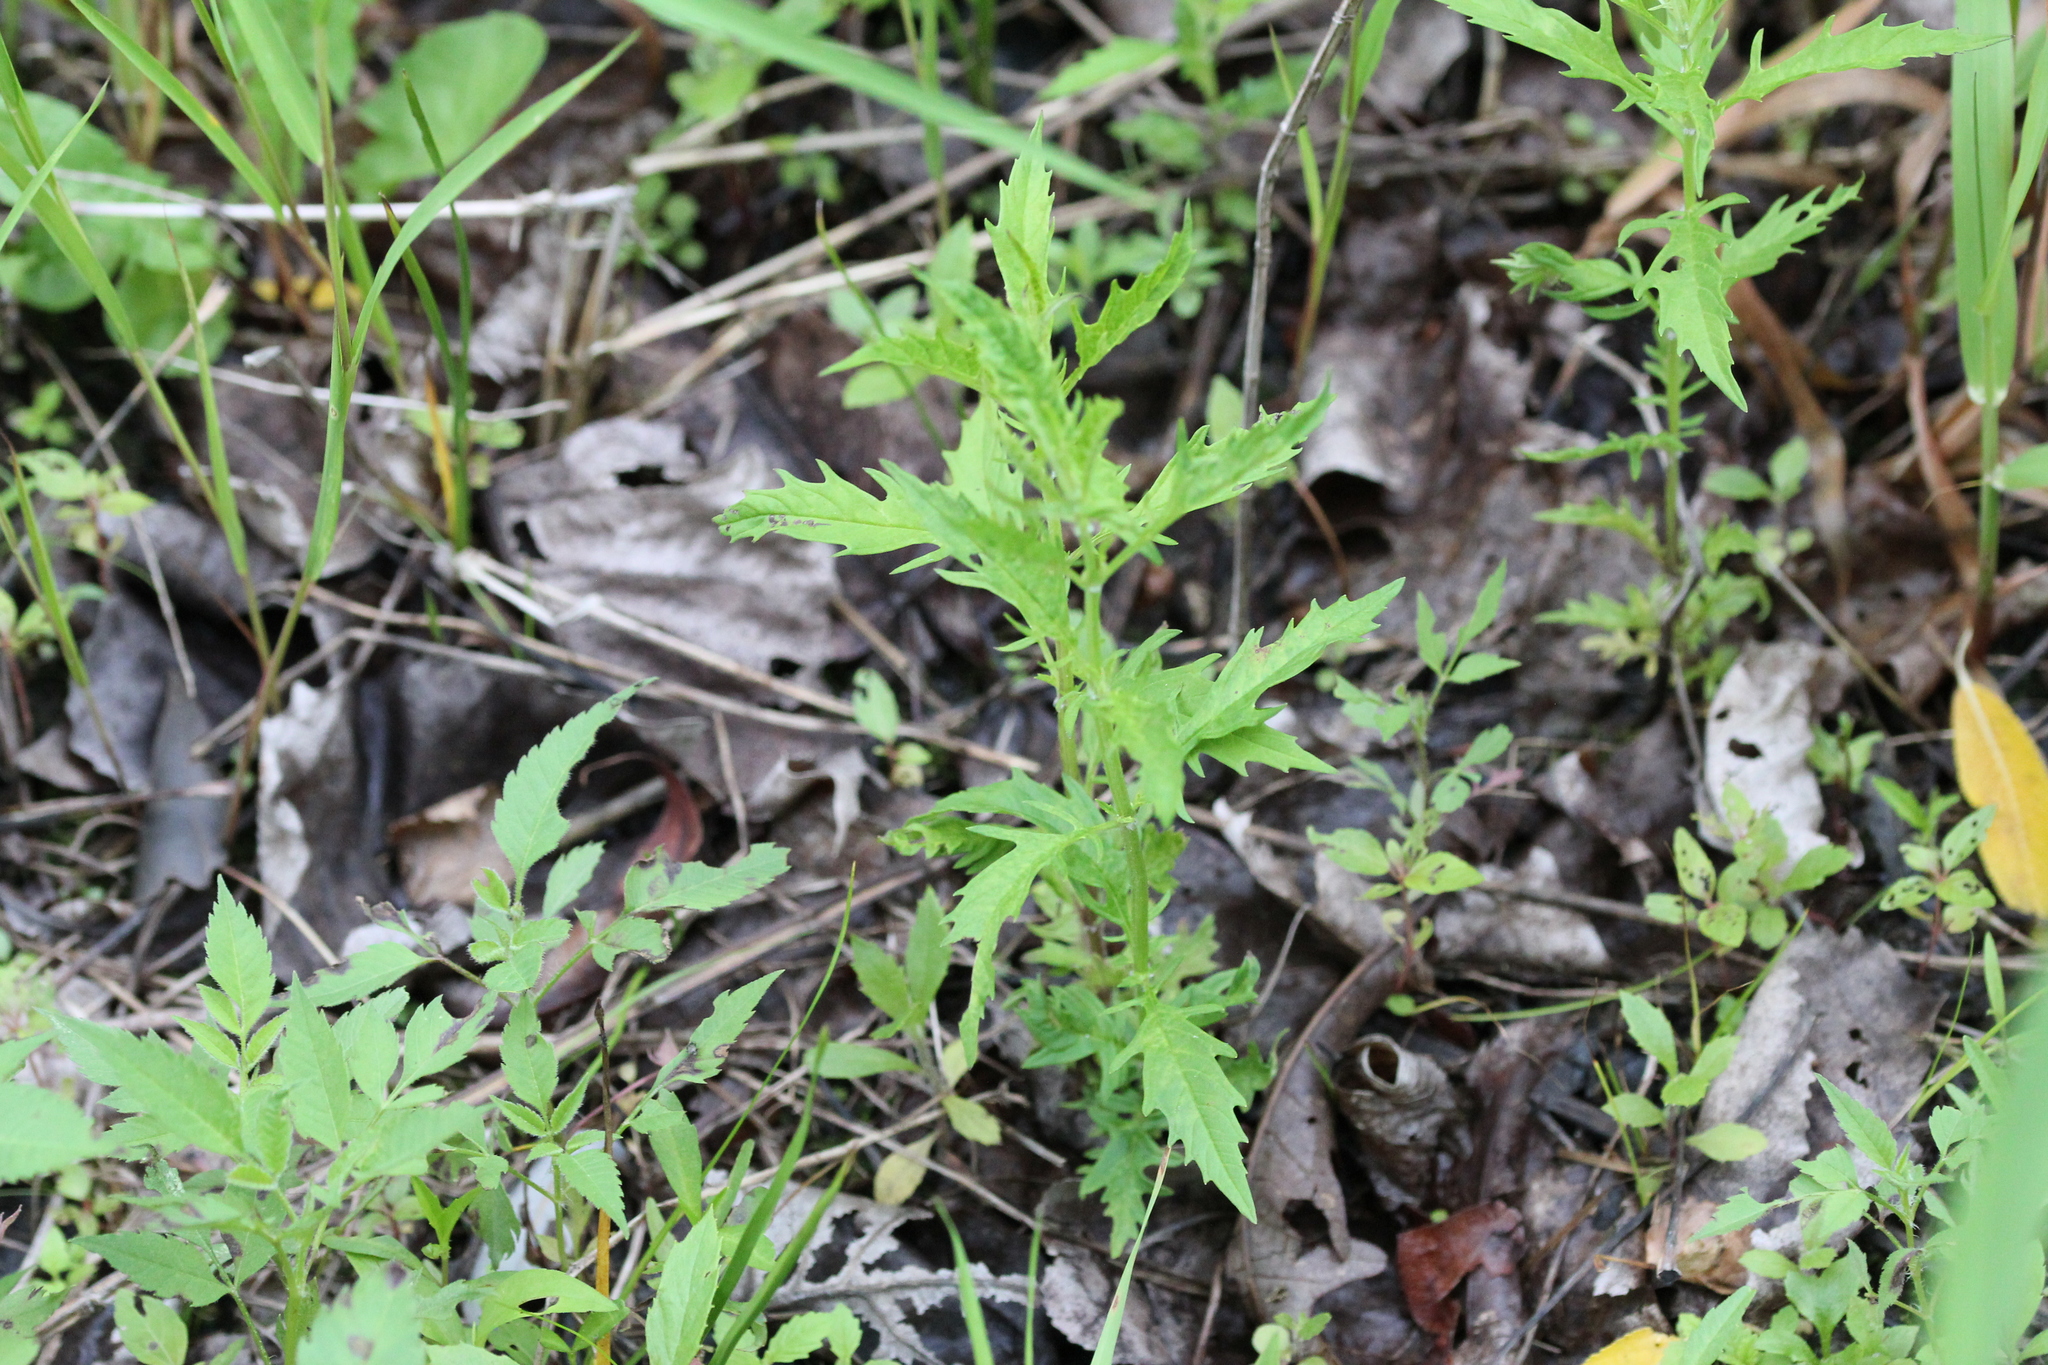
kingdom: Plantae
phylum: Tracheophyta
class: Magnoliopsida
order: Lamiales
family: Lamiaceae
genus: Lycopus
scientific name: Lycopus americanus
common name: American bugleweed
